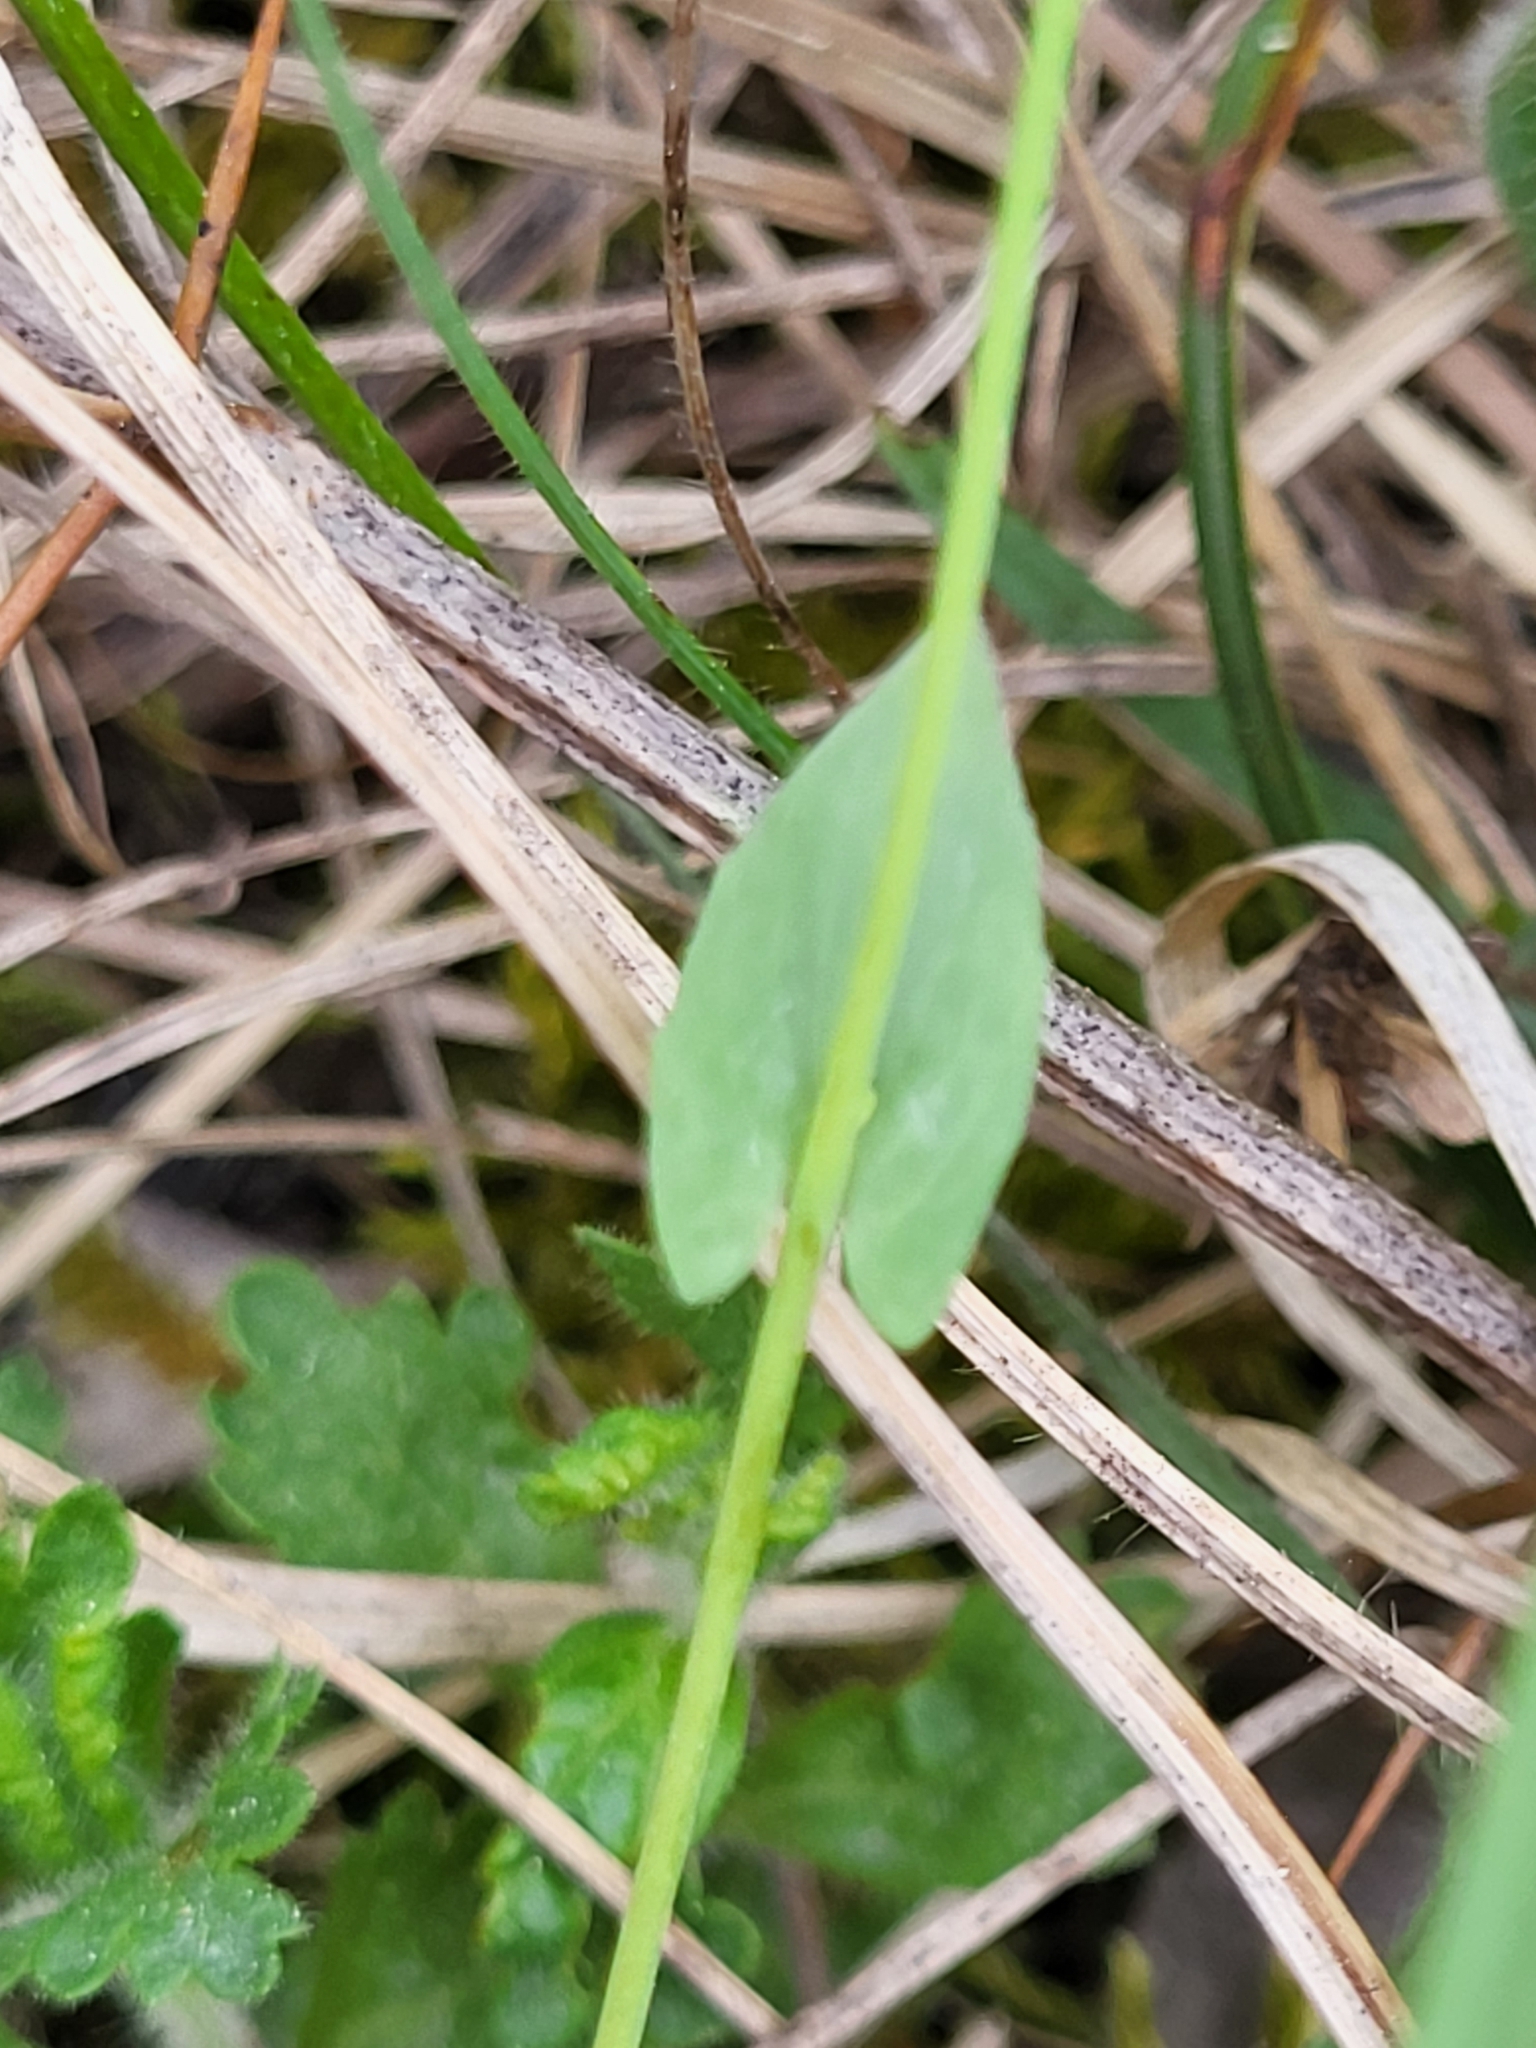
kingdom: Plantae
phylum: Tracheophyta
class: Magnoliopsida
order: Brassicales
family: Brassicaceae
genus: Noccaea
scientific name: Noccaea perfoliata
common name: Perfoliate pennycress
